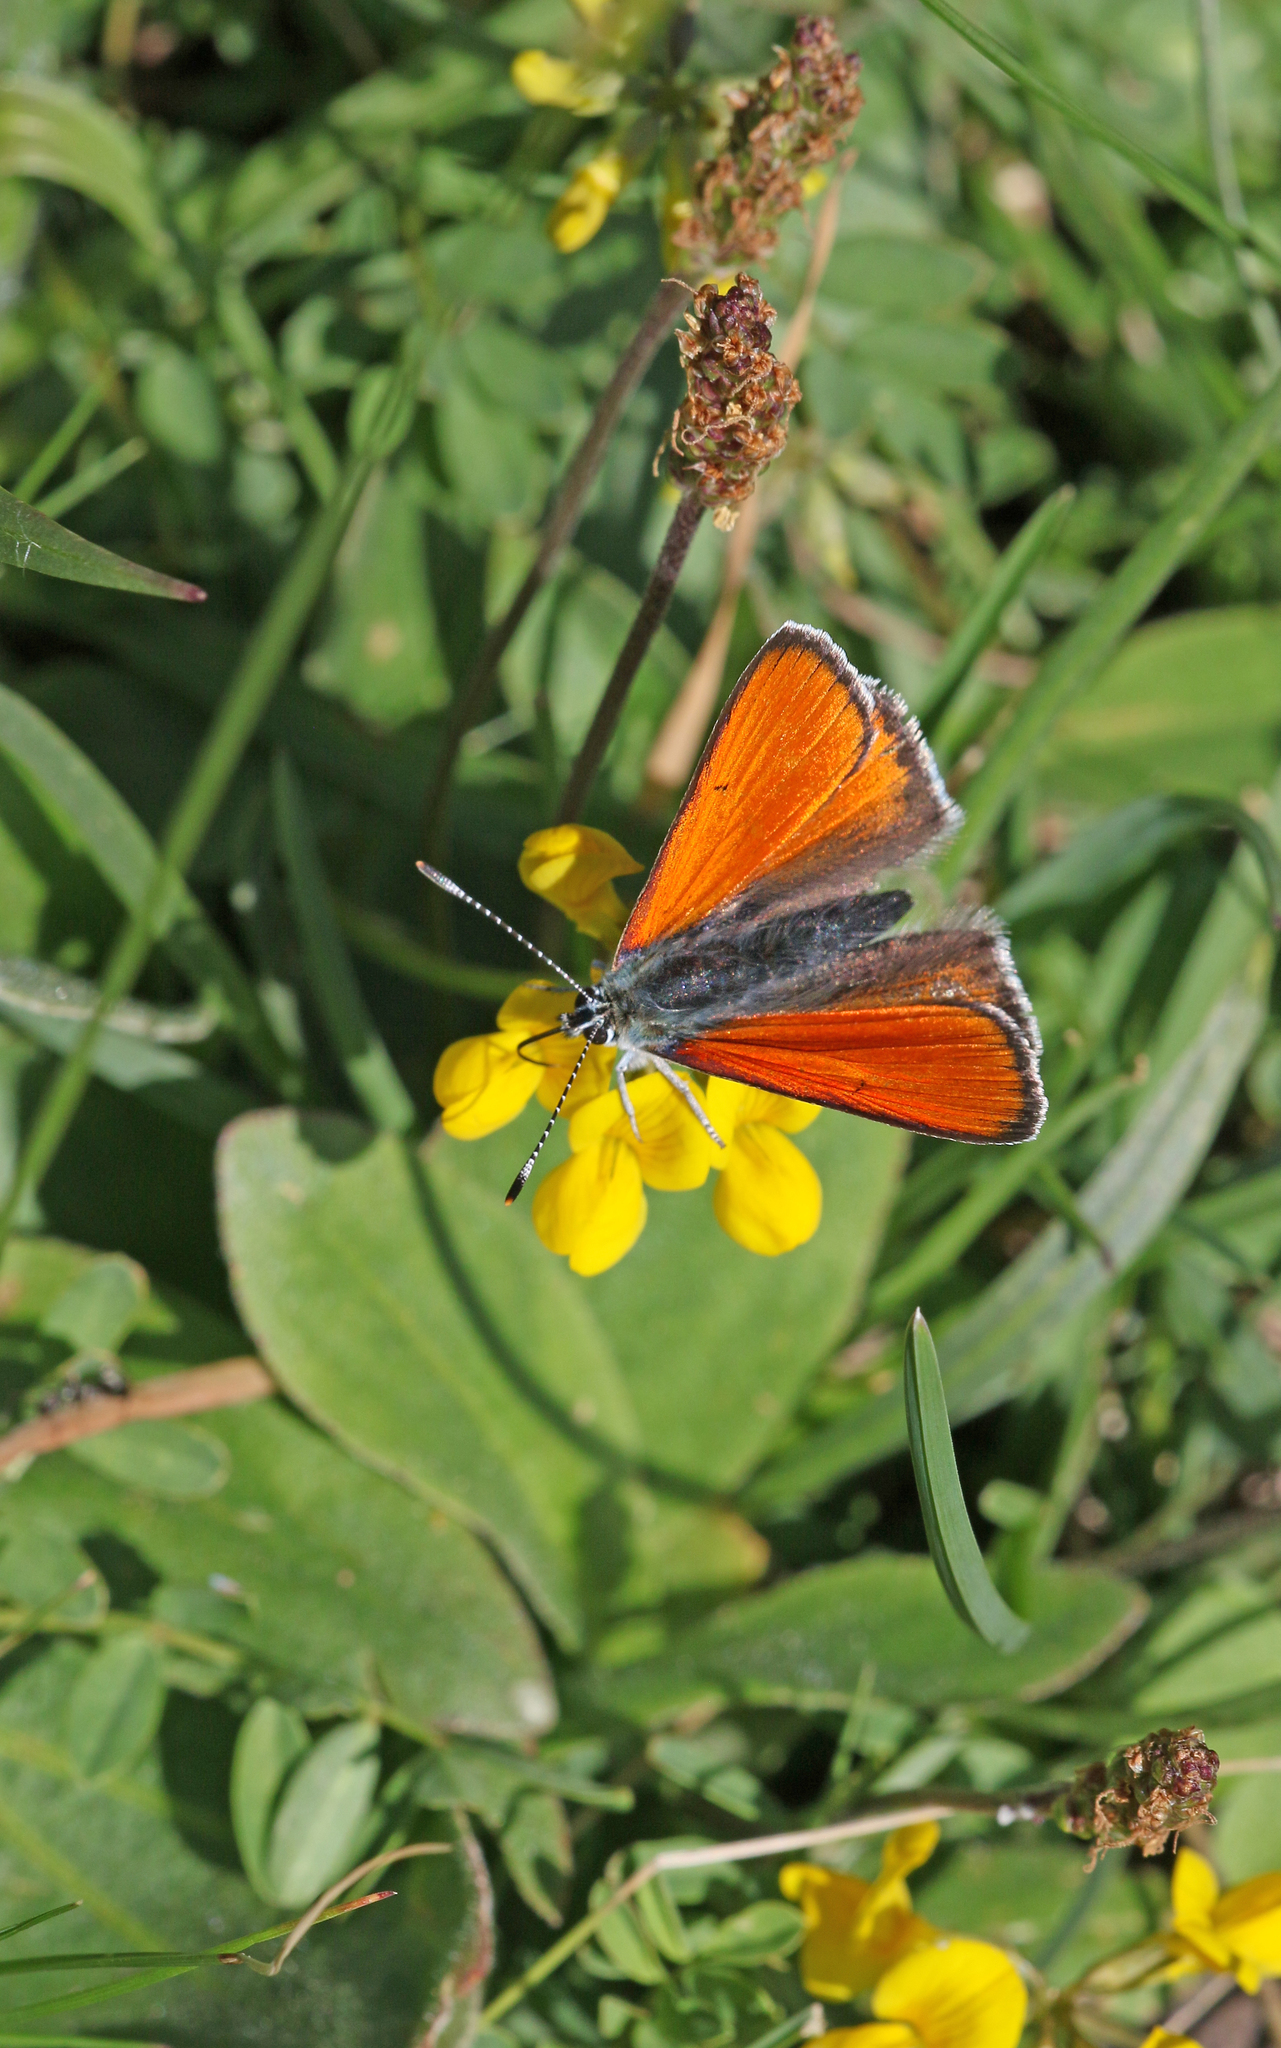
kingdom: Animalia
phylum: Arthropoda
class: Insecta
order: Lepidoptera
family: Lycaenidae
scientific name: Lycaenidae
